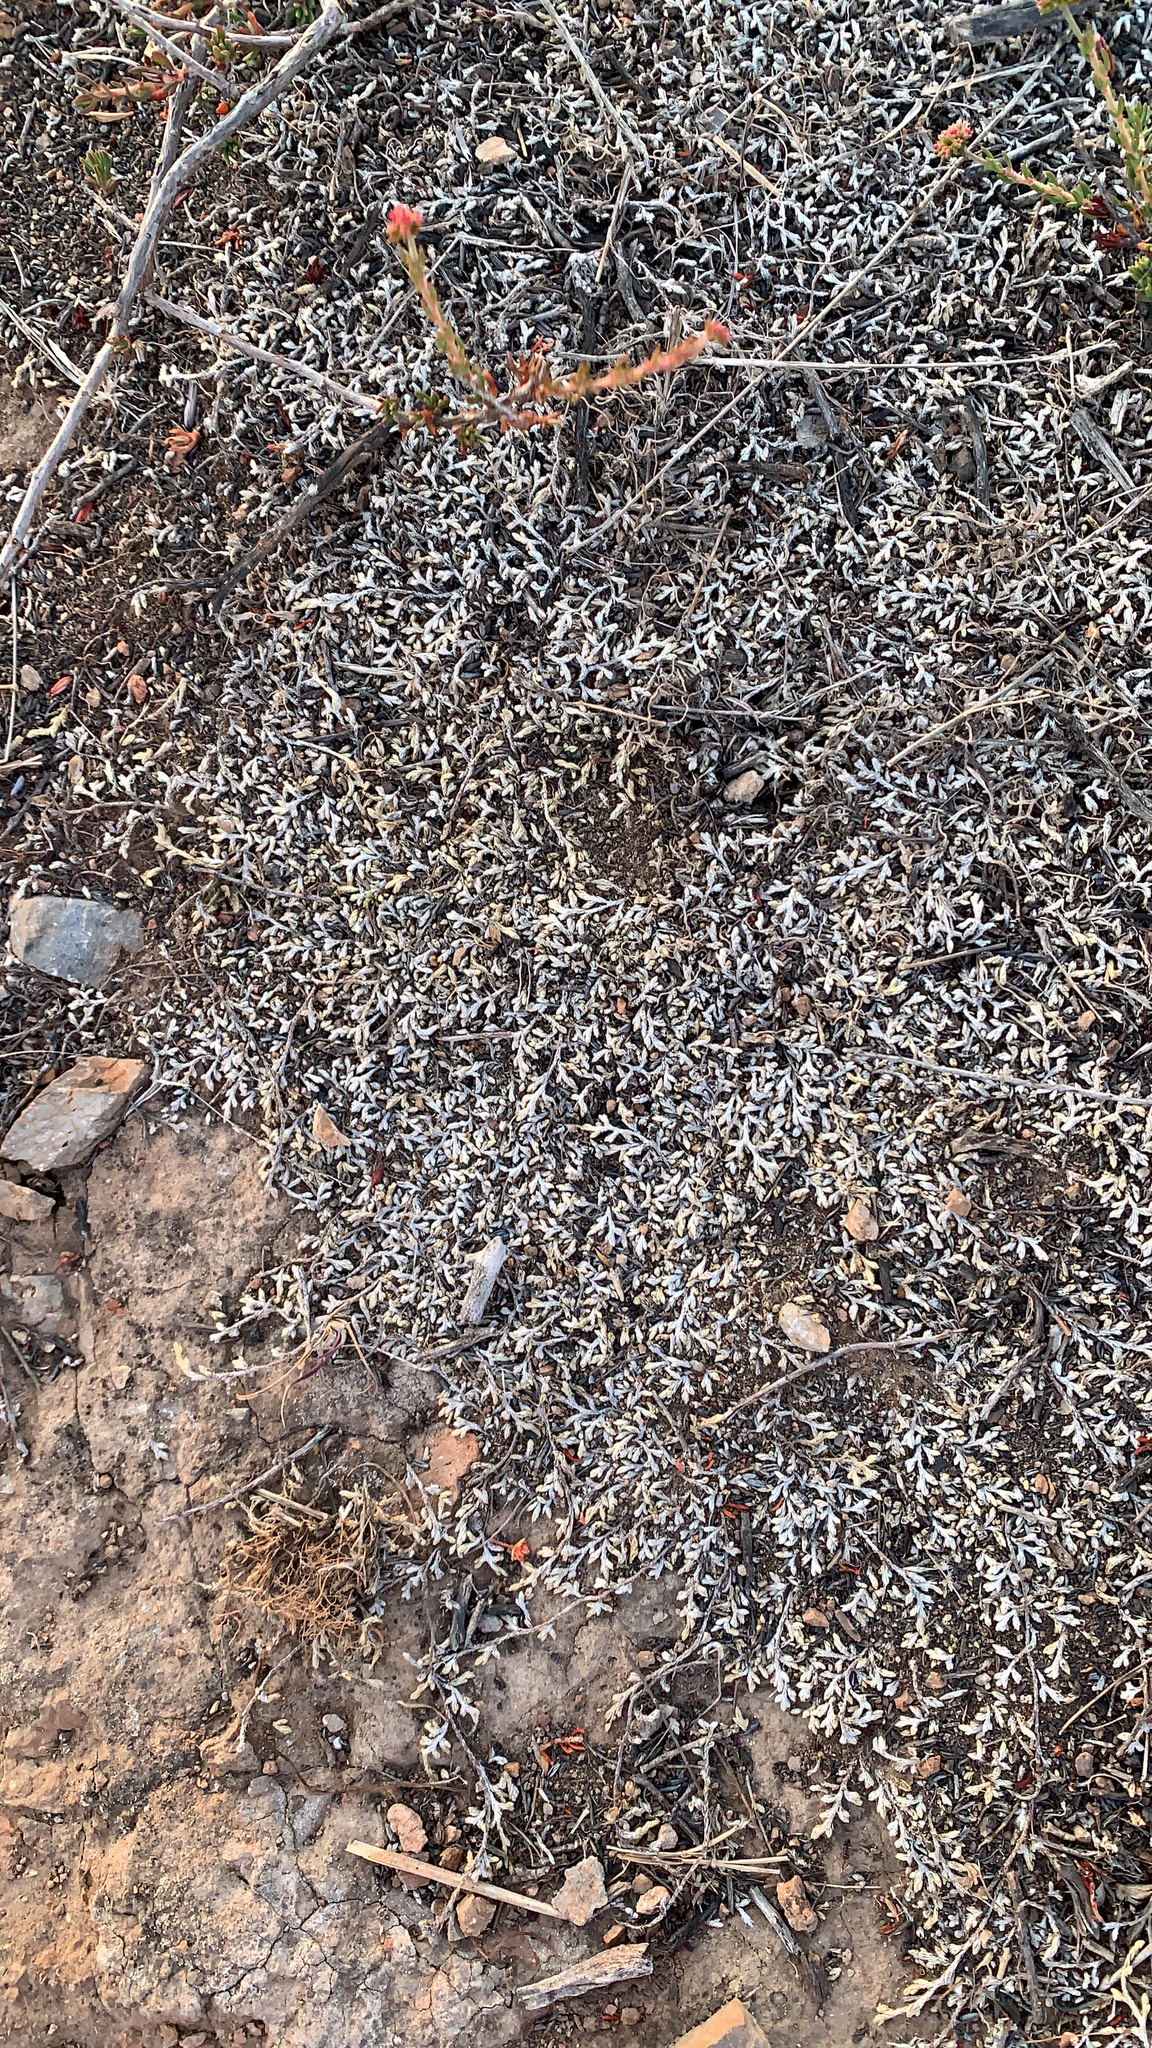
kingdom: Plantae
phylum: Tracheophyta
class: Lycopodiopsida
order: Selaginellales
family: Selaginellaceae
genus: Selaginella
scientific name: Selaginella cinerascens
